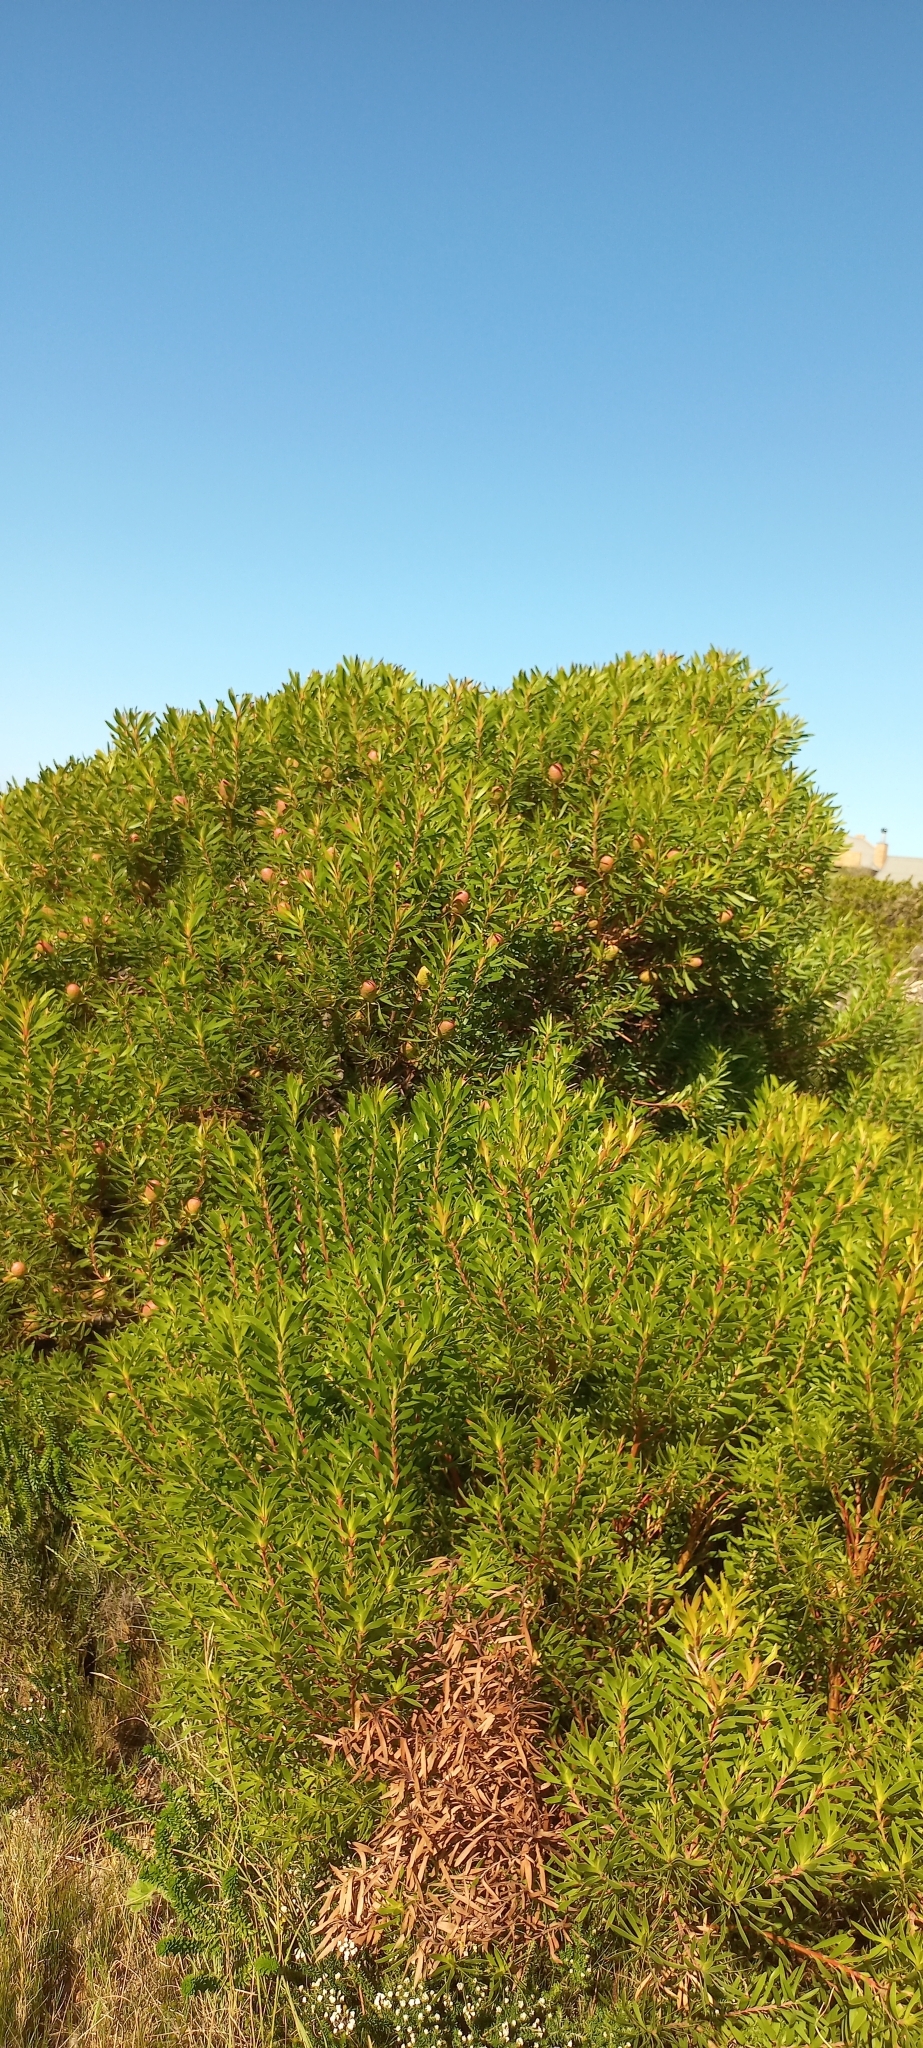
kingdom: Plantae
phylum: Tracheophyta
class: Magnoliopsida
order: Proteales
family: Proteaceae
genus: Leucadendron
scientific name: Leucadendron coniferum
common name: Dune conebush
